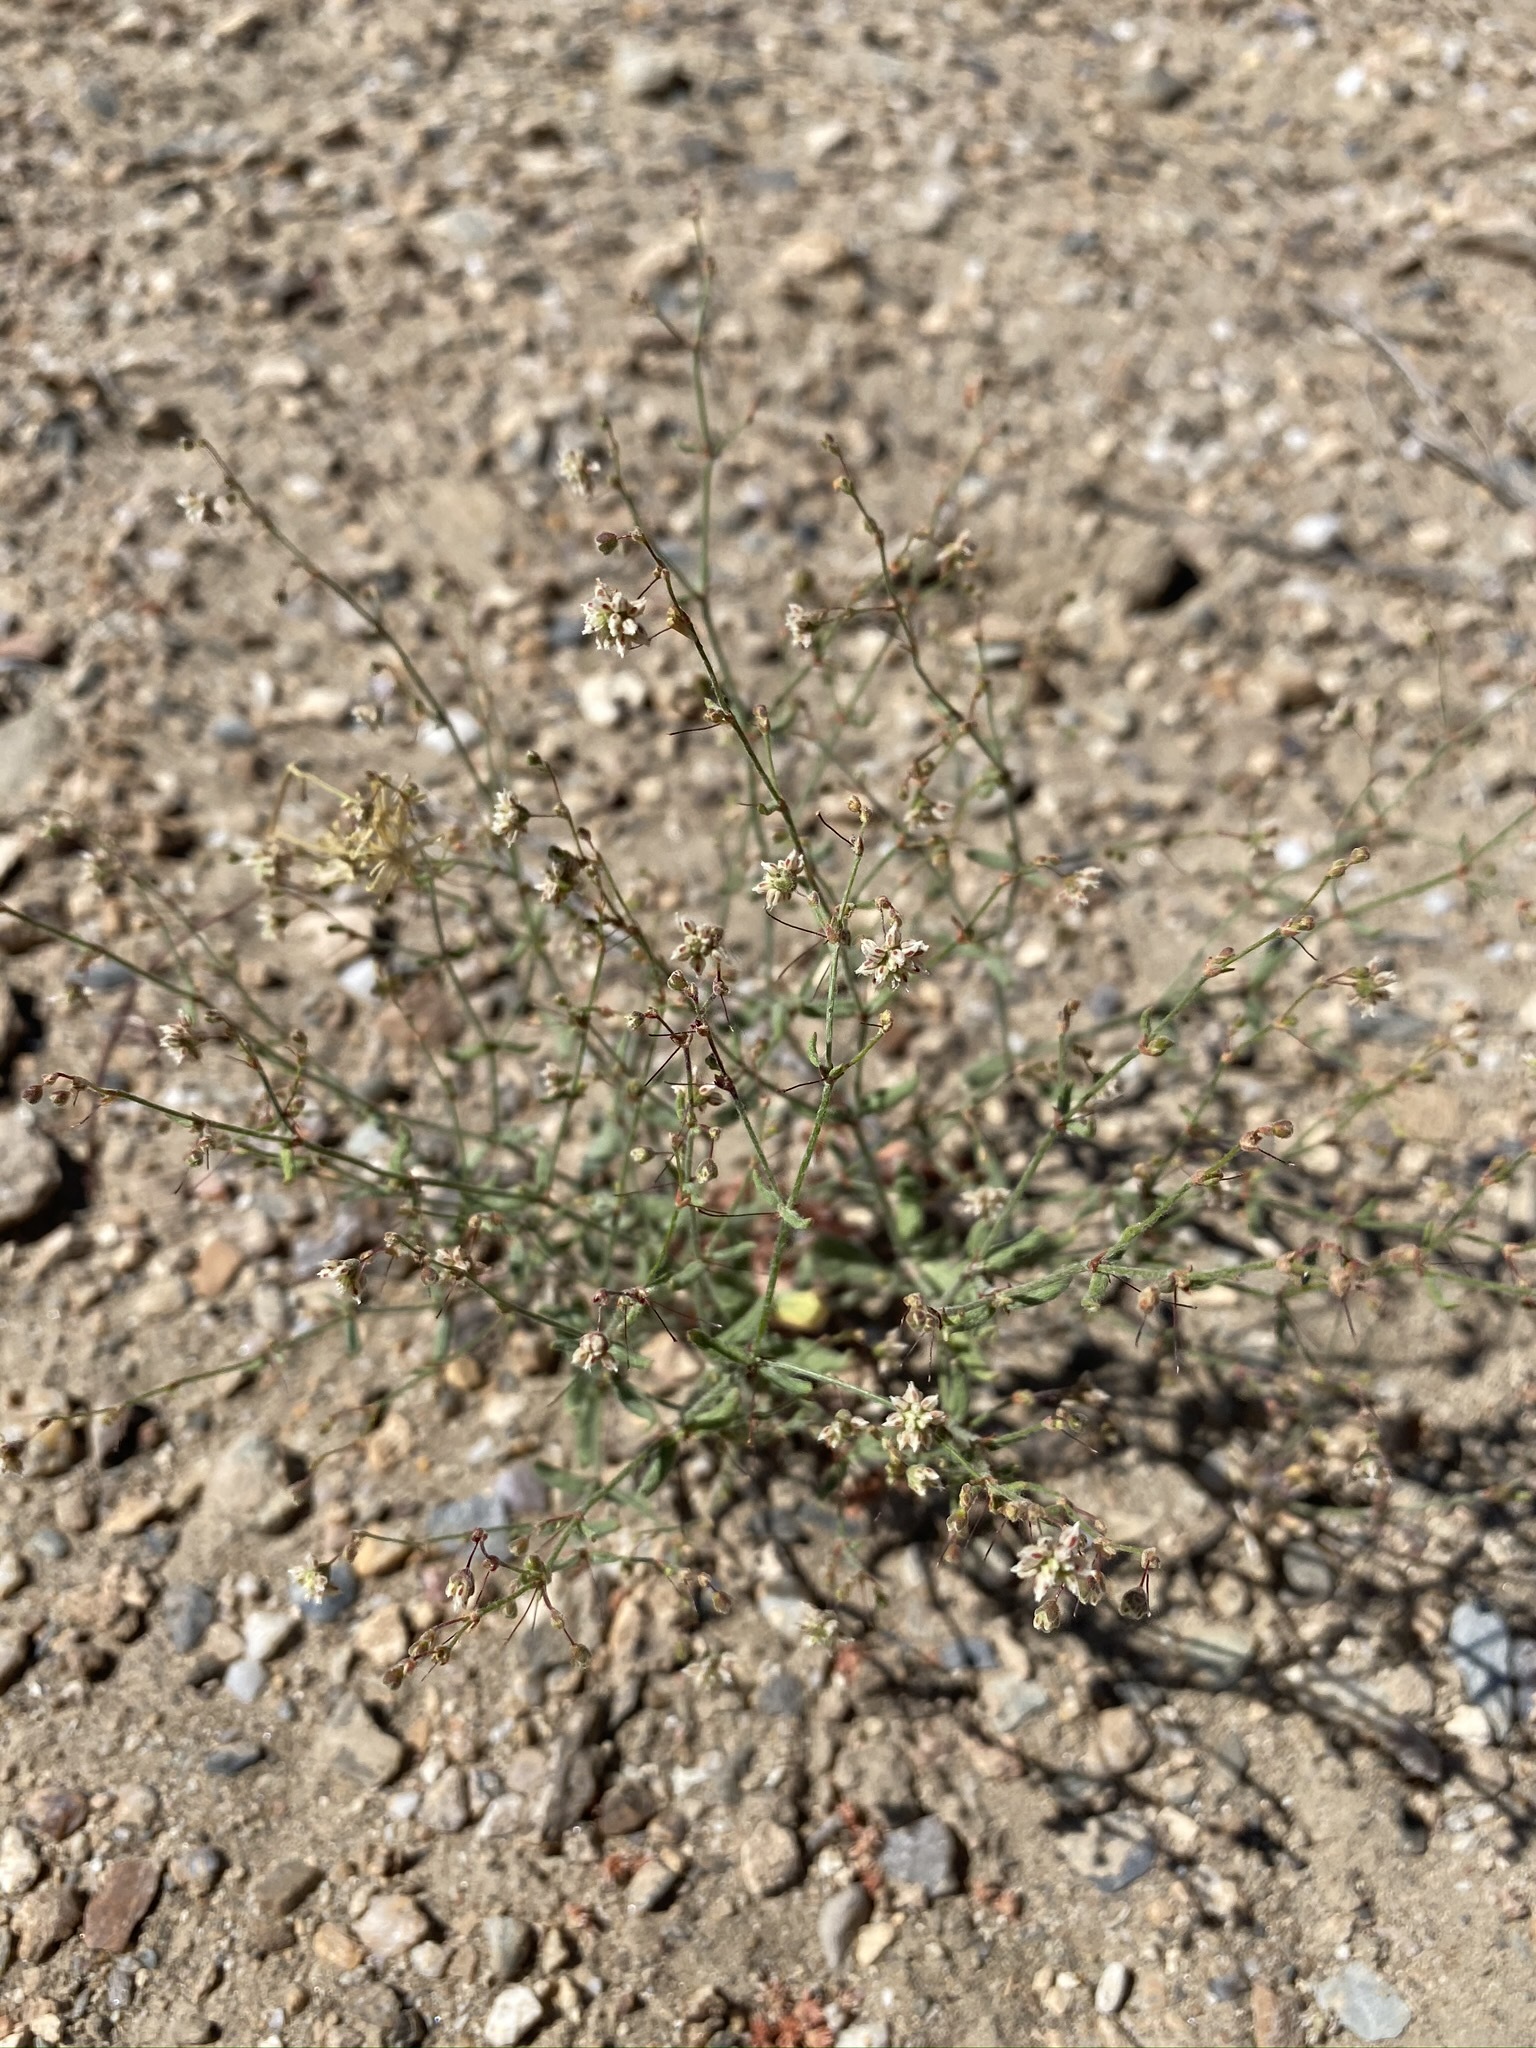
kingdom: Plantae
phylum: Tracheophyta
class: Magnoliopsida
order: Caryophyllales
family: Polygonaceae
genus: Eriogonum
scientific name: Eriogonum maculatum
